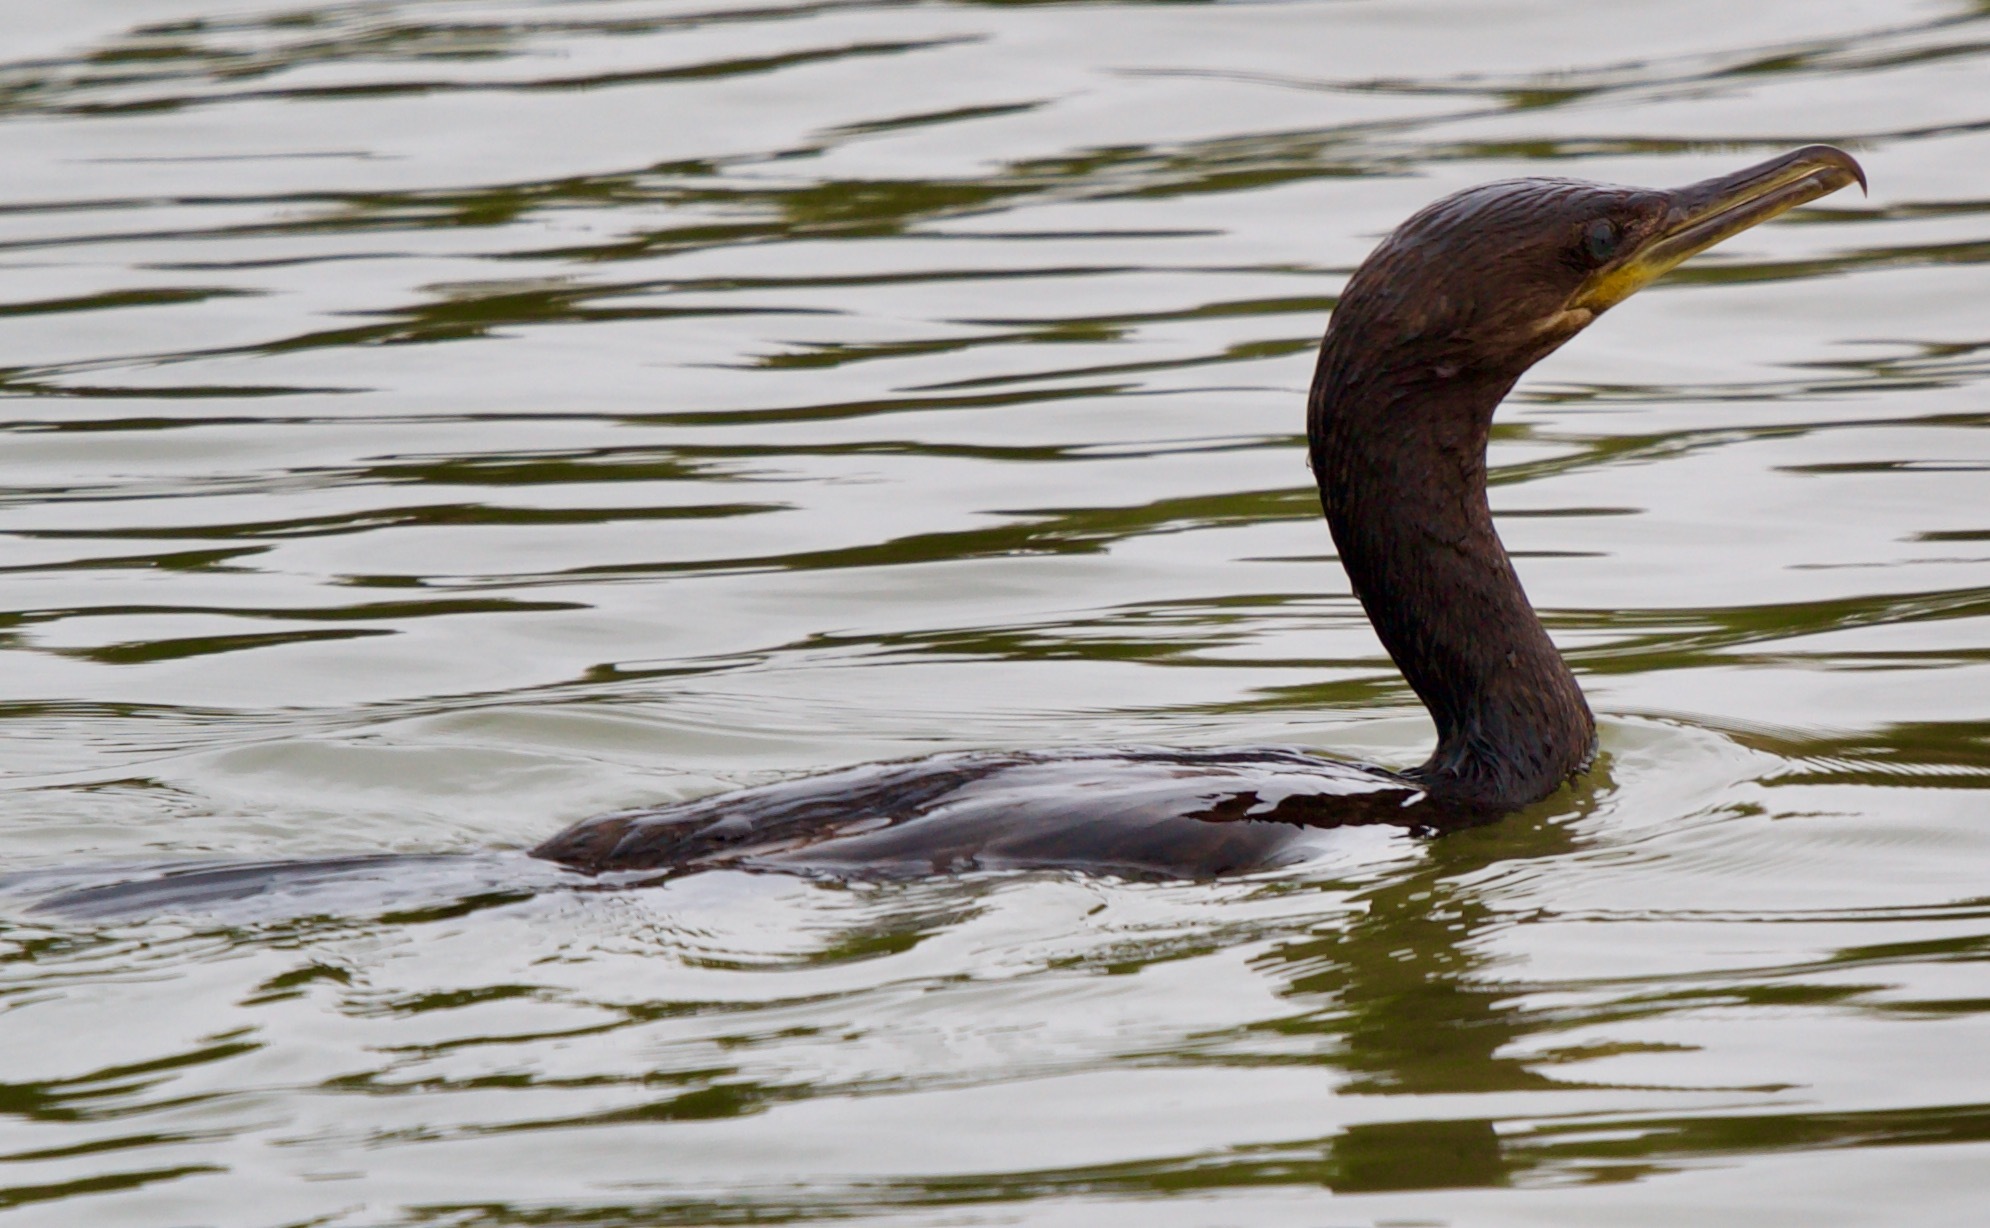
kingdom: Animalia
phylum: Chordata
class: Aves
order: Suliformes
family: Phalacrocoracidae
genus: Phalacrocorax
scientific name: Phalacrocorax brasilianus
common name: Neotropic cormorant
